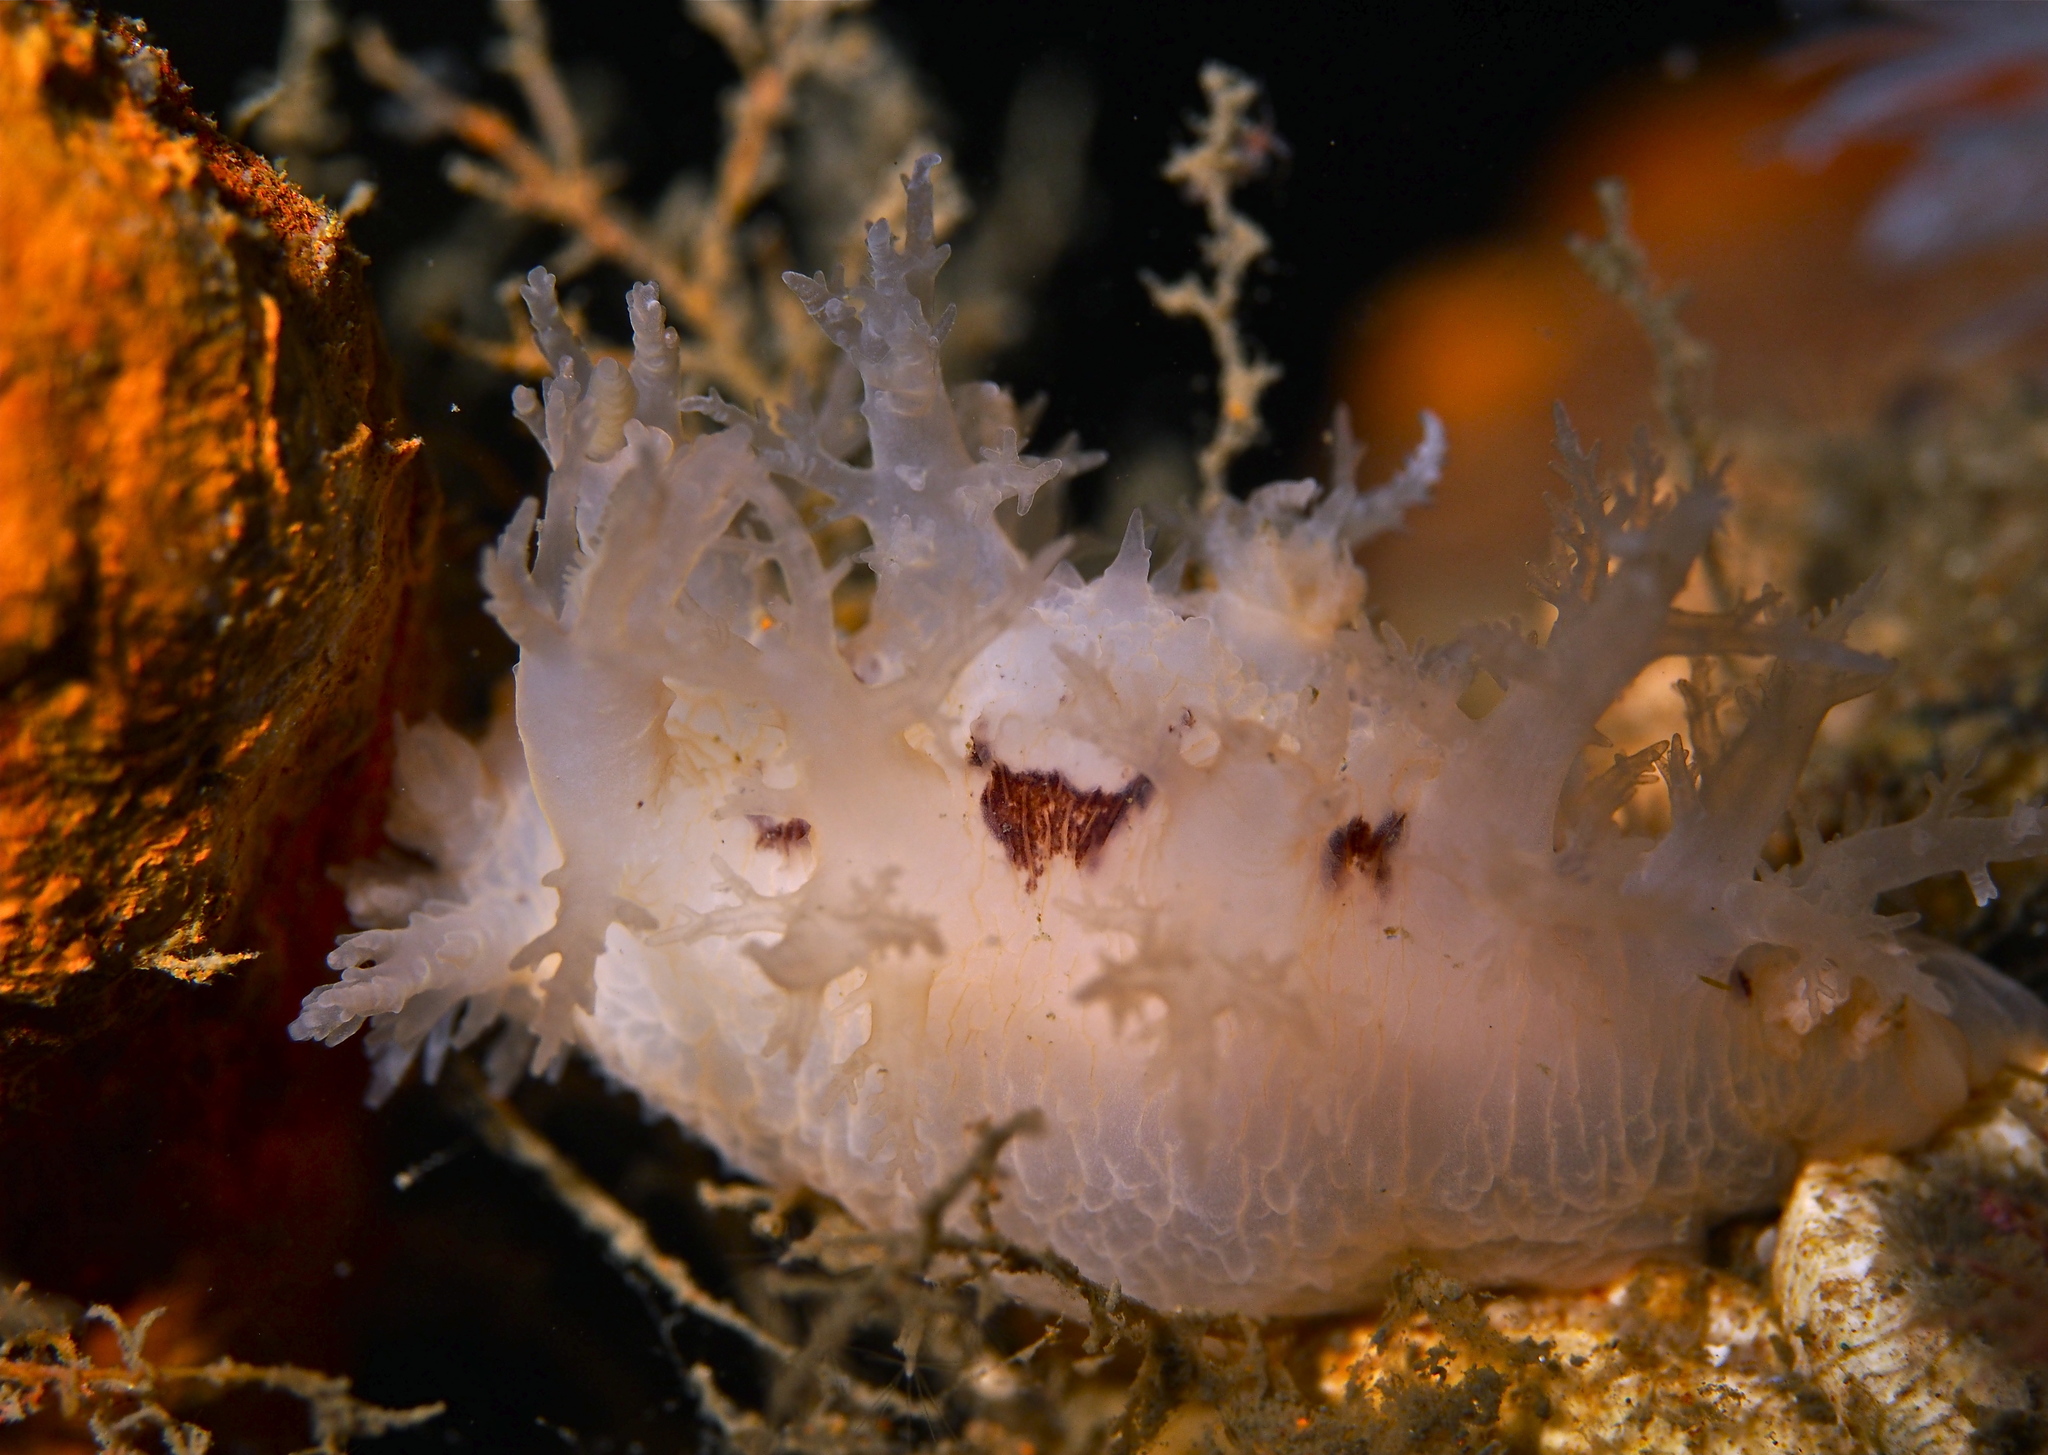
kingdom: Animalia
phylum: Mollusca
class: Gastropoda
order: Nudibranchia
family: Dendronotidae
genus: Dendronotus
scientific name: Dendronotus lacteus
